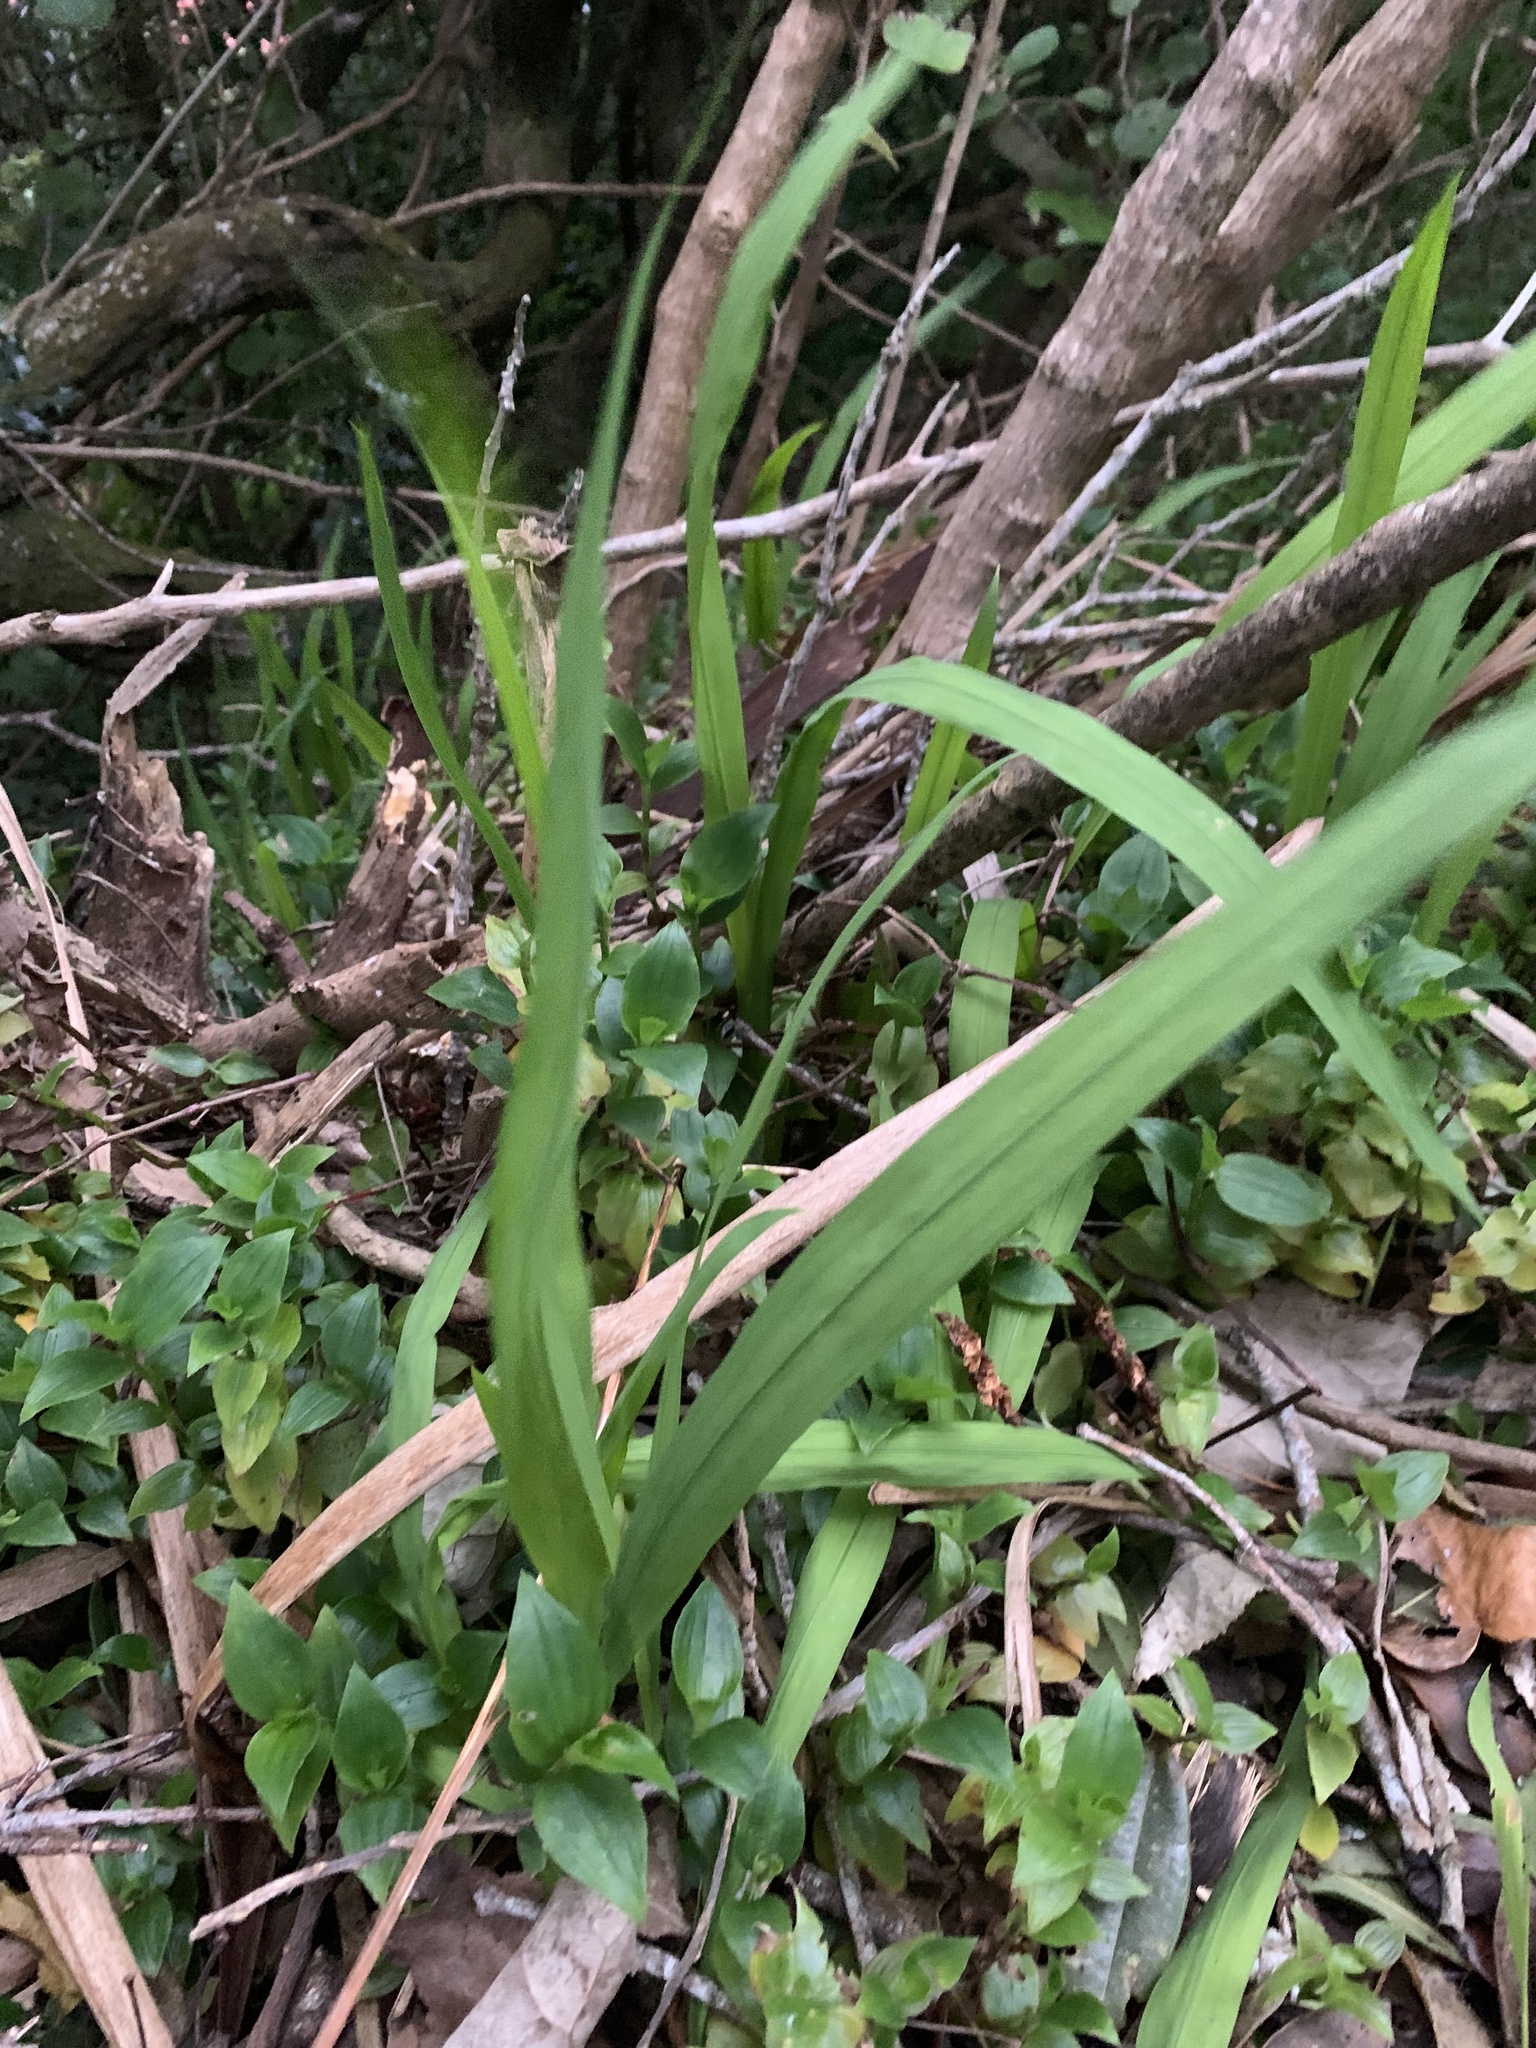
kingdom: Plantae
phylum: Tracheophyta
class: Liliopsida
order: Asparagales
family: Iridaceae
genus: Crocosmia
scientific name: Crocosmia crocosmiiflora
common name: Montbretia
